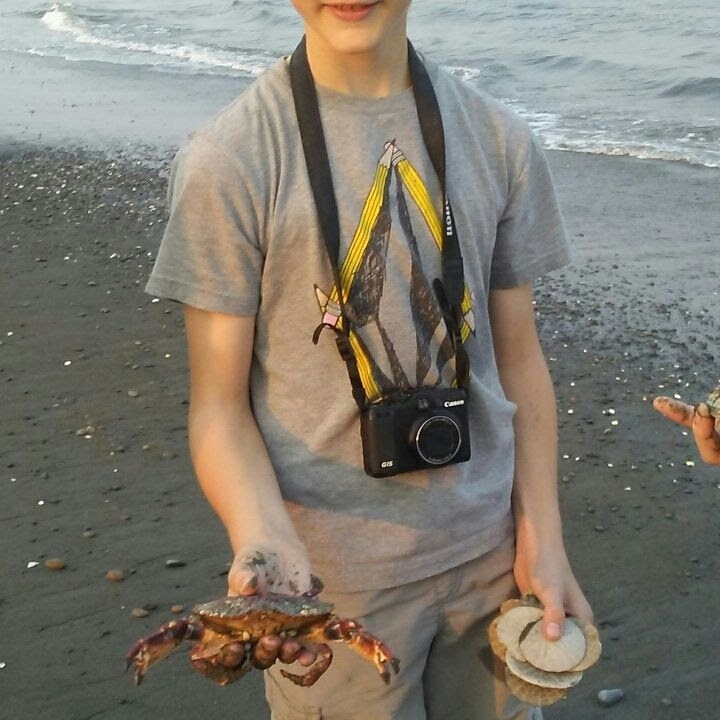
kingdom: Animalia
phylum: Arthropoda
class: Malacostraca
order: Decapoda
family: Cancridae
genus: Cancer
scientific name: Cancer productus
